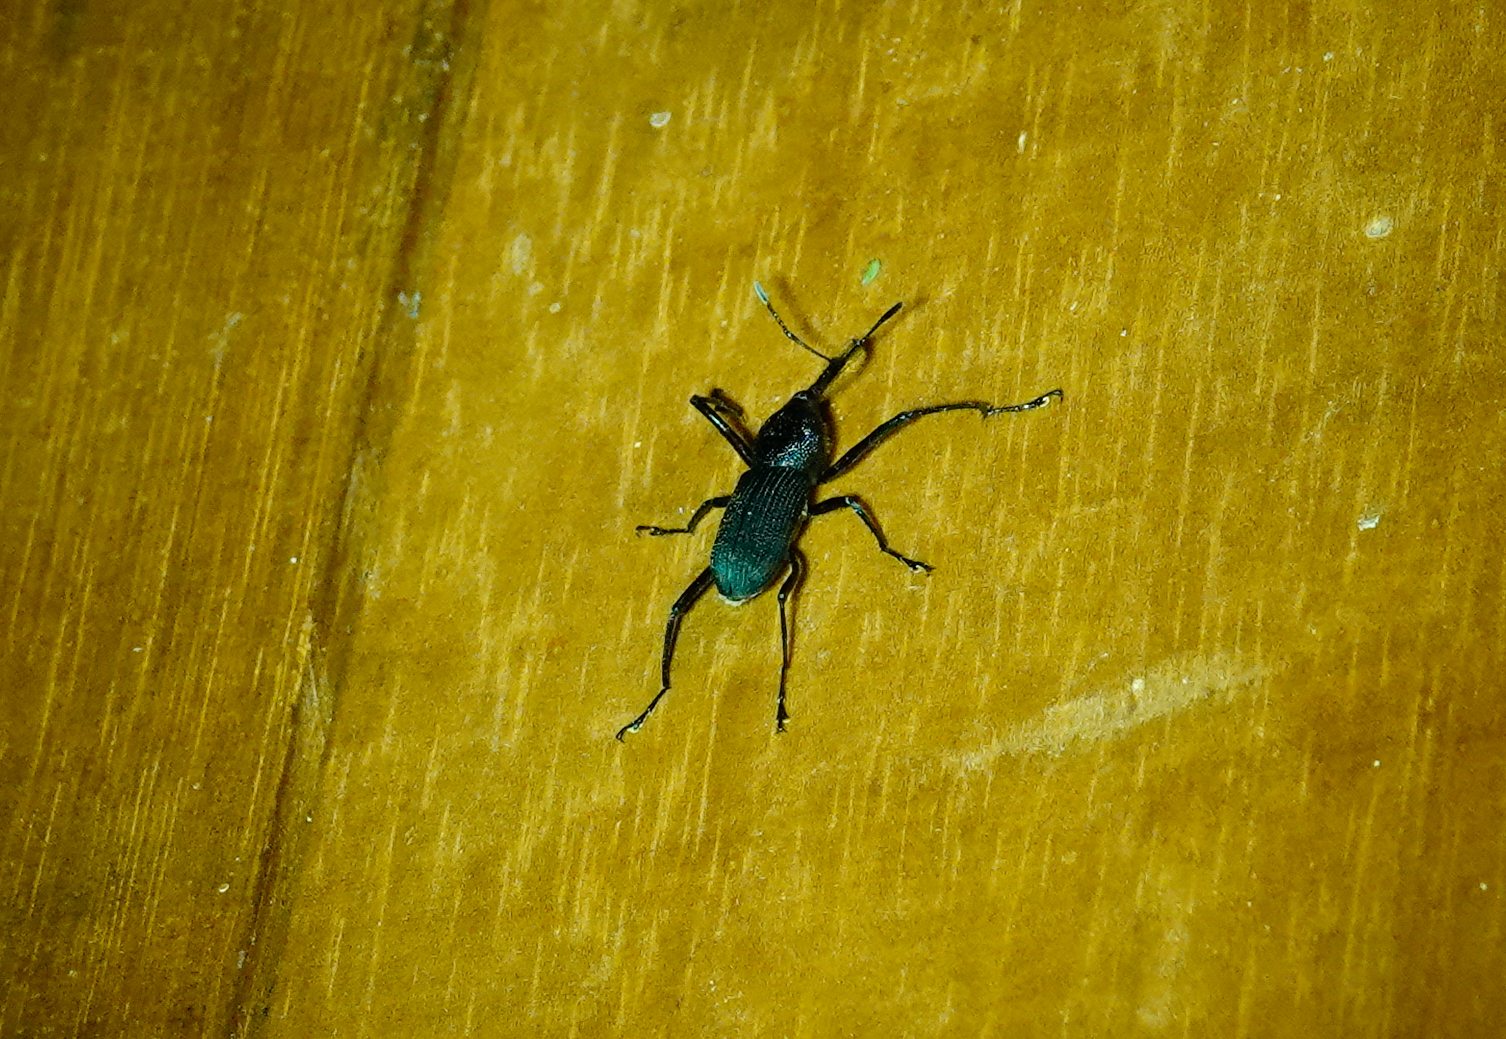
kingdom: Animalia
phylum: Arthropoda
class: Insecta
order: Coleoptera
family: Dryophthoridae
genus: Rhinostomus
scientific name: Rhinostomus barbirostris
